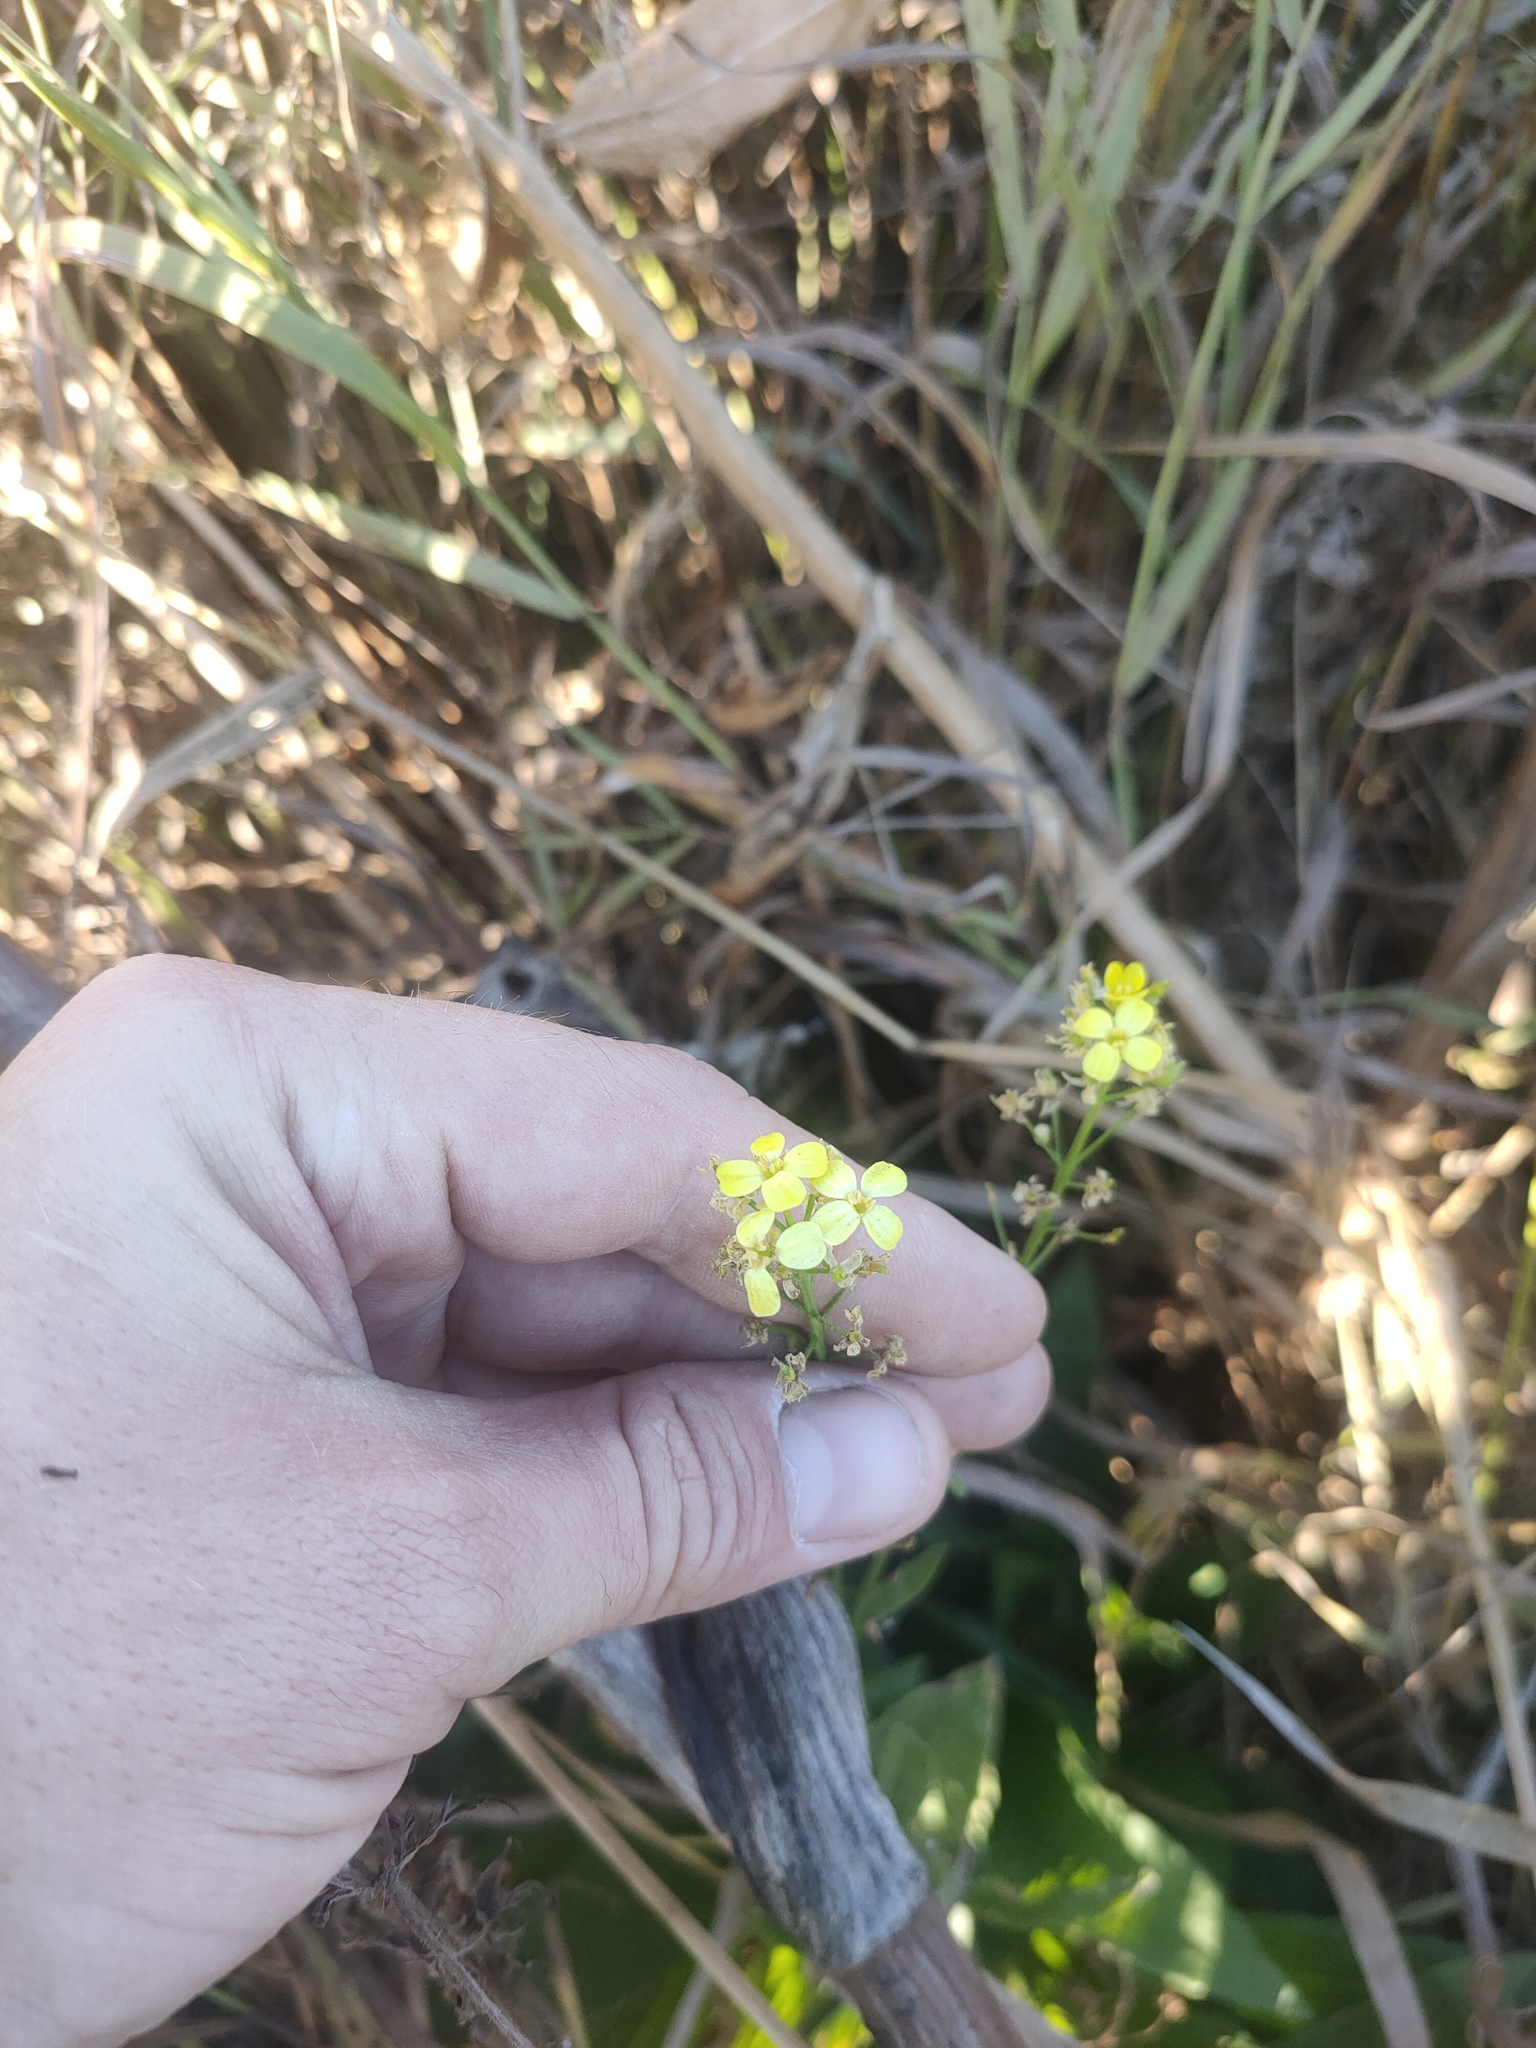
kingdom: Plantae
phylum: Tracheophyta
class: Magnoliopsida
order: Brassicales
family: Brassicaceae
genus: Bunias
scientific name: Bunias orientalis
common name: Warty-cabbage
